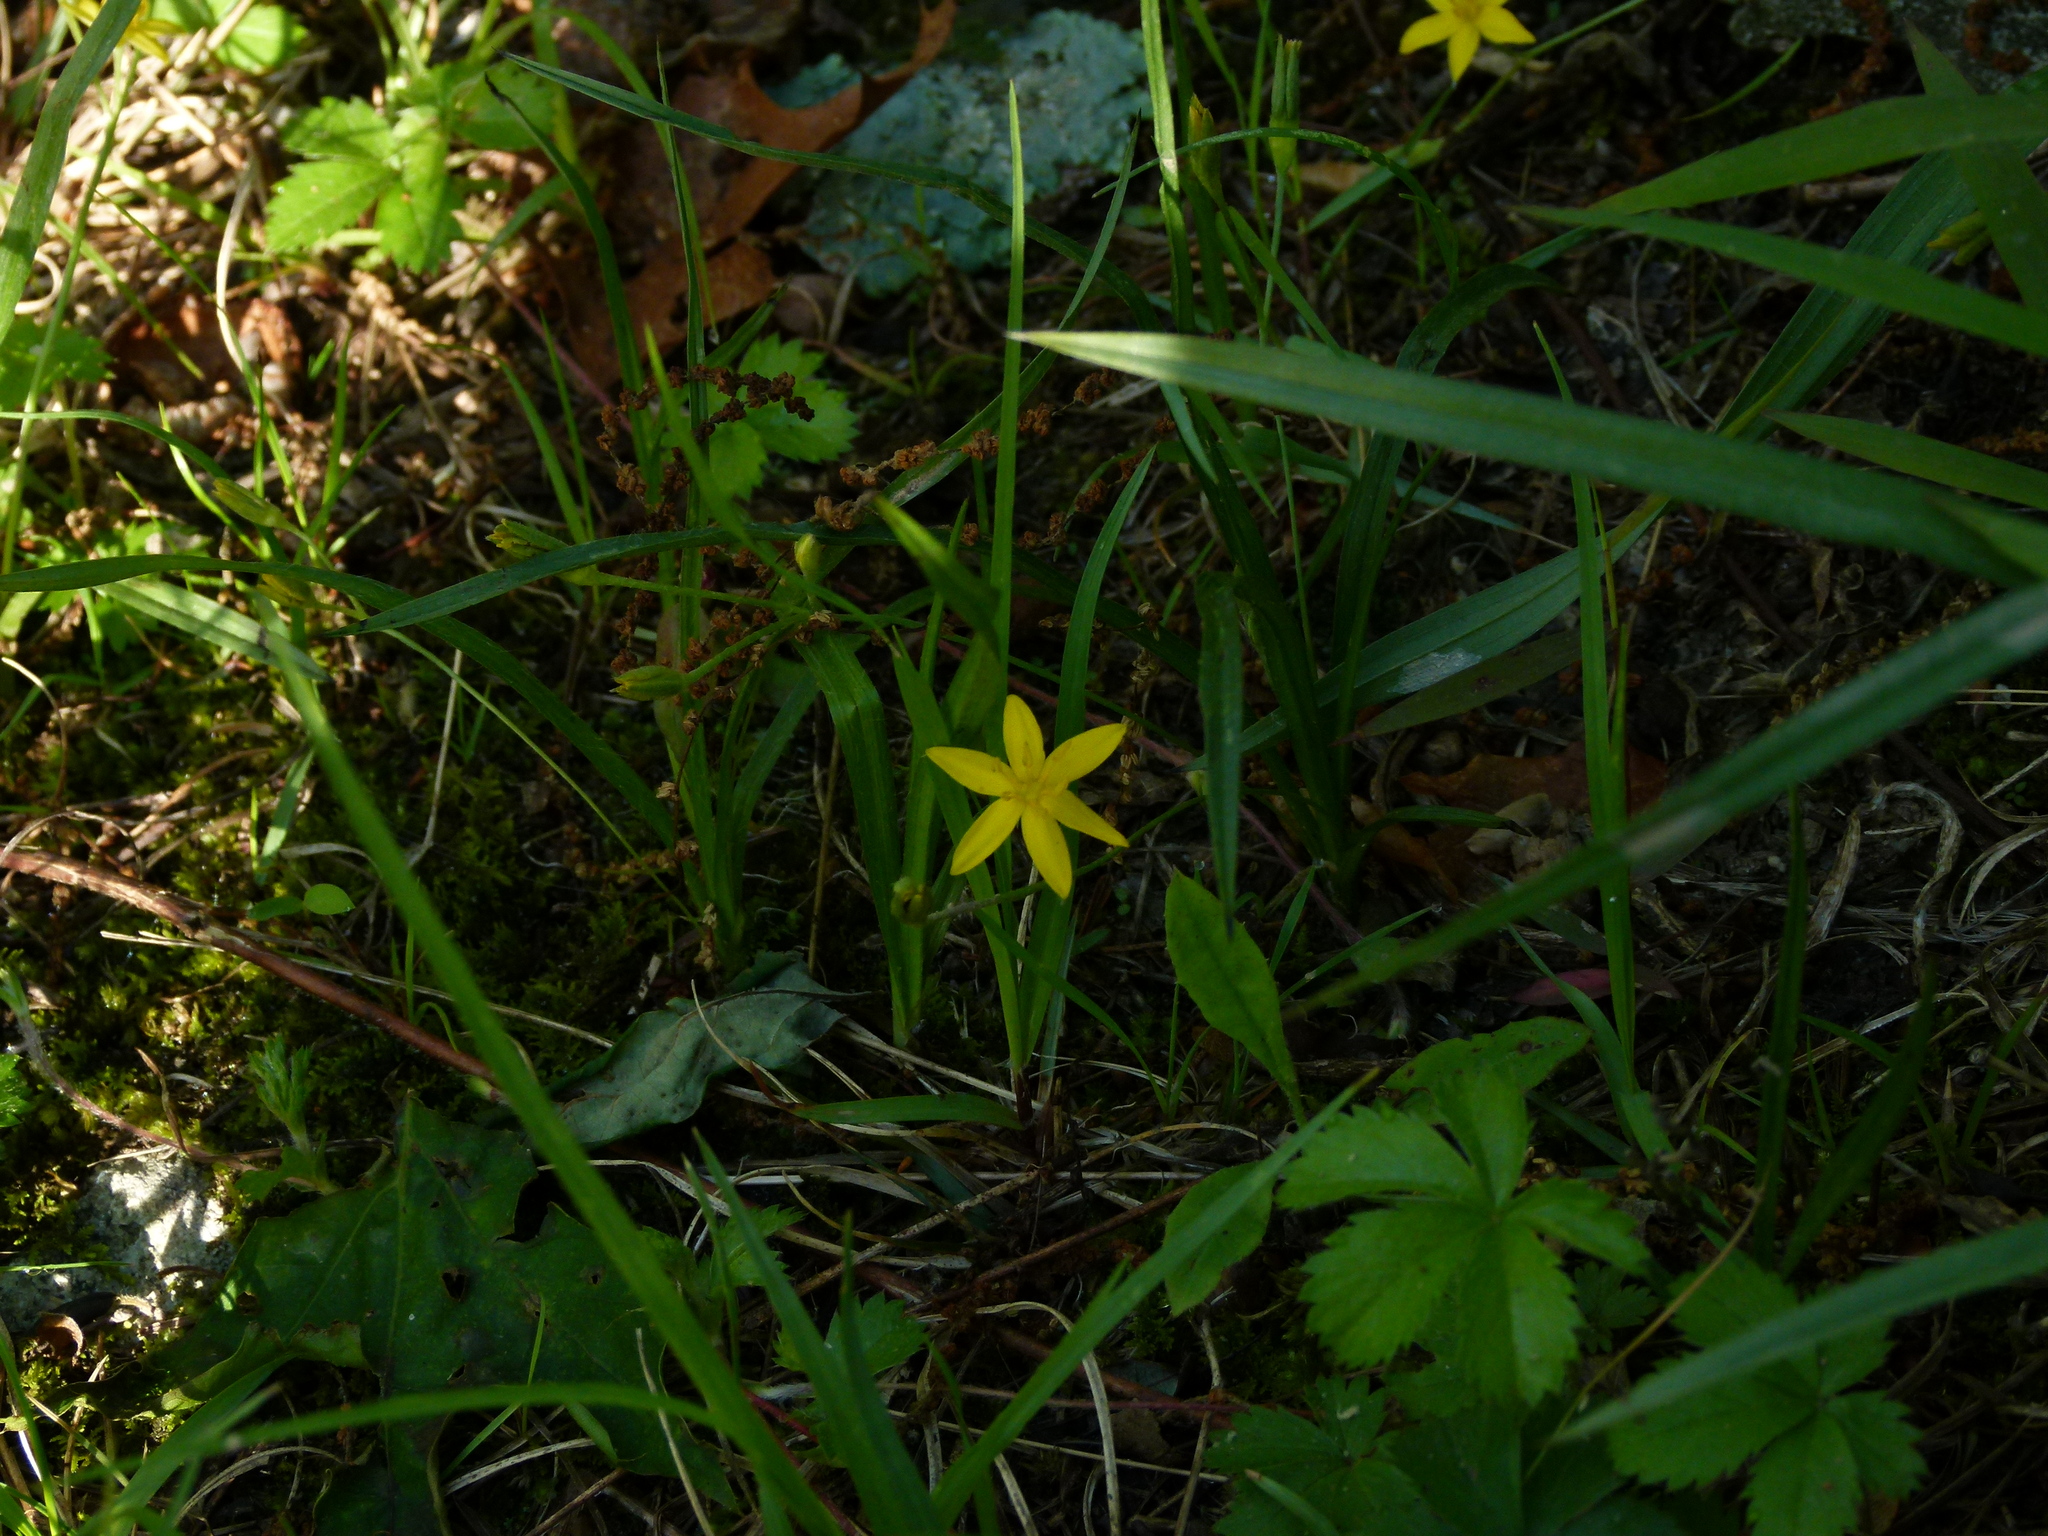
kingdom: Plantae
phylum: Tracheophyta
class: Liliopsida
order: Asparagales
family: Hypoxidaceae
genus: Hypoxis
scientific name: Hypoxis hirsuta
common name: Common goldstar
